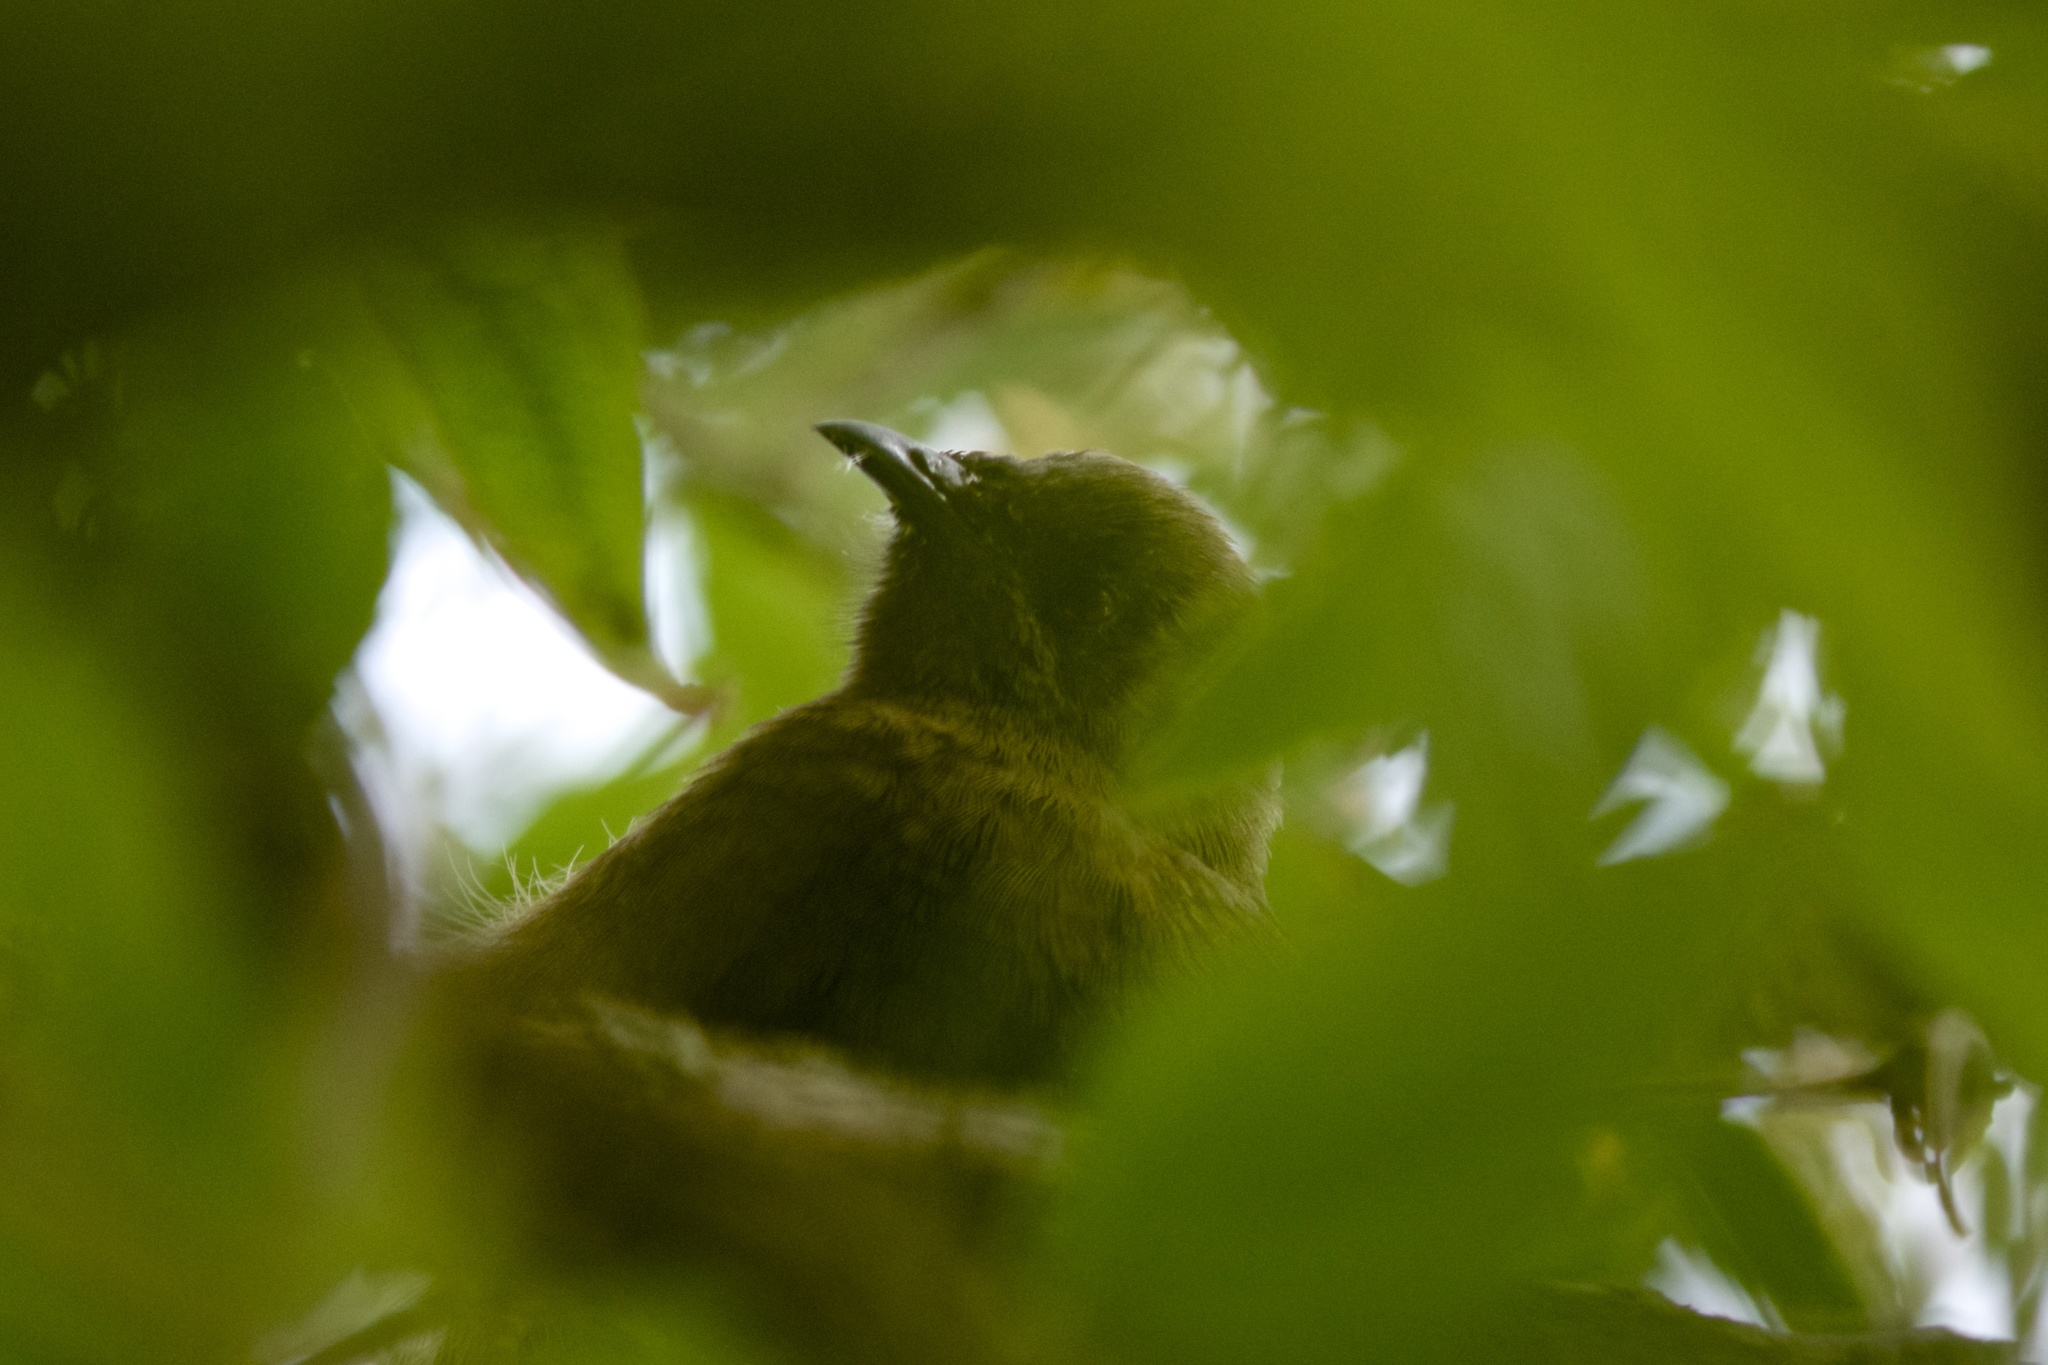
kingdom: Animalia
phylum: Chordata
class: Aves
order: Passeriformes
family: Meliphagidae
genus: Anthornis
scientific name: Anthornis melanura
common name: New zealand bellbird
